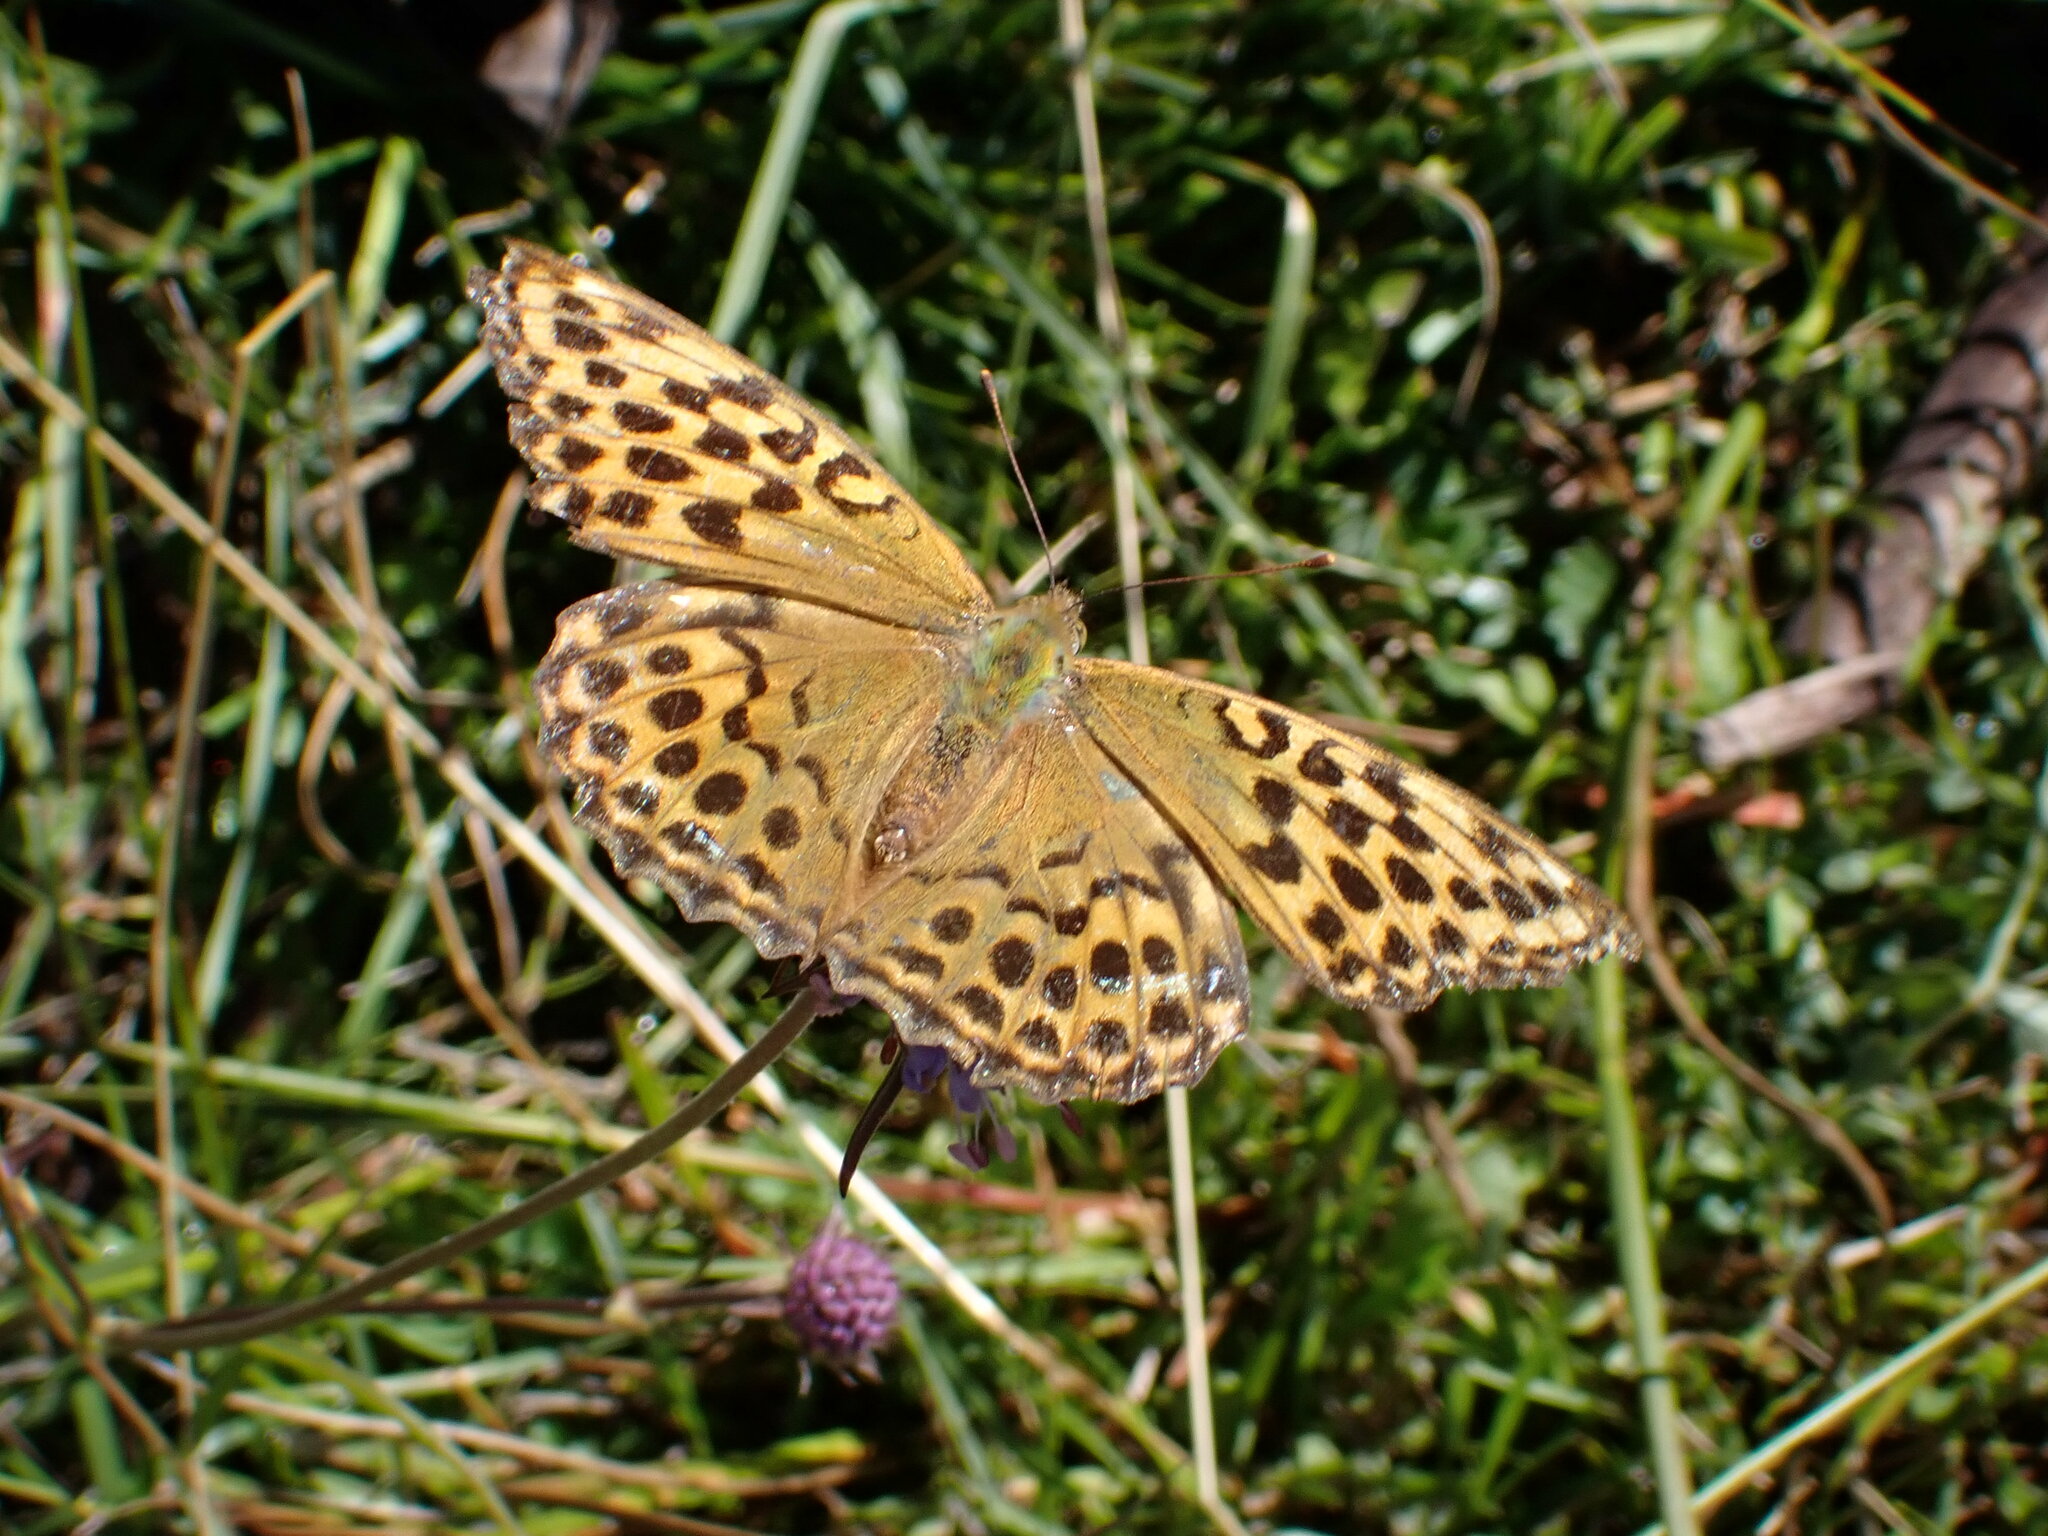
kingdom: Animalia
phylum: Arthropoda
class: Insecta
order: Lepidoptera
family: Nymphalidae
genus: Argynnis
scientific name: Argynnis paphia
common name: Silver-washed fritillary
